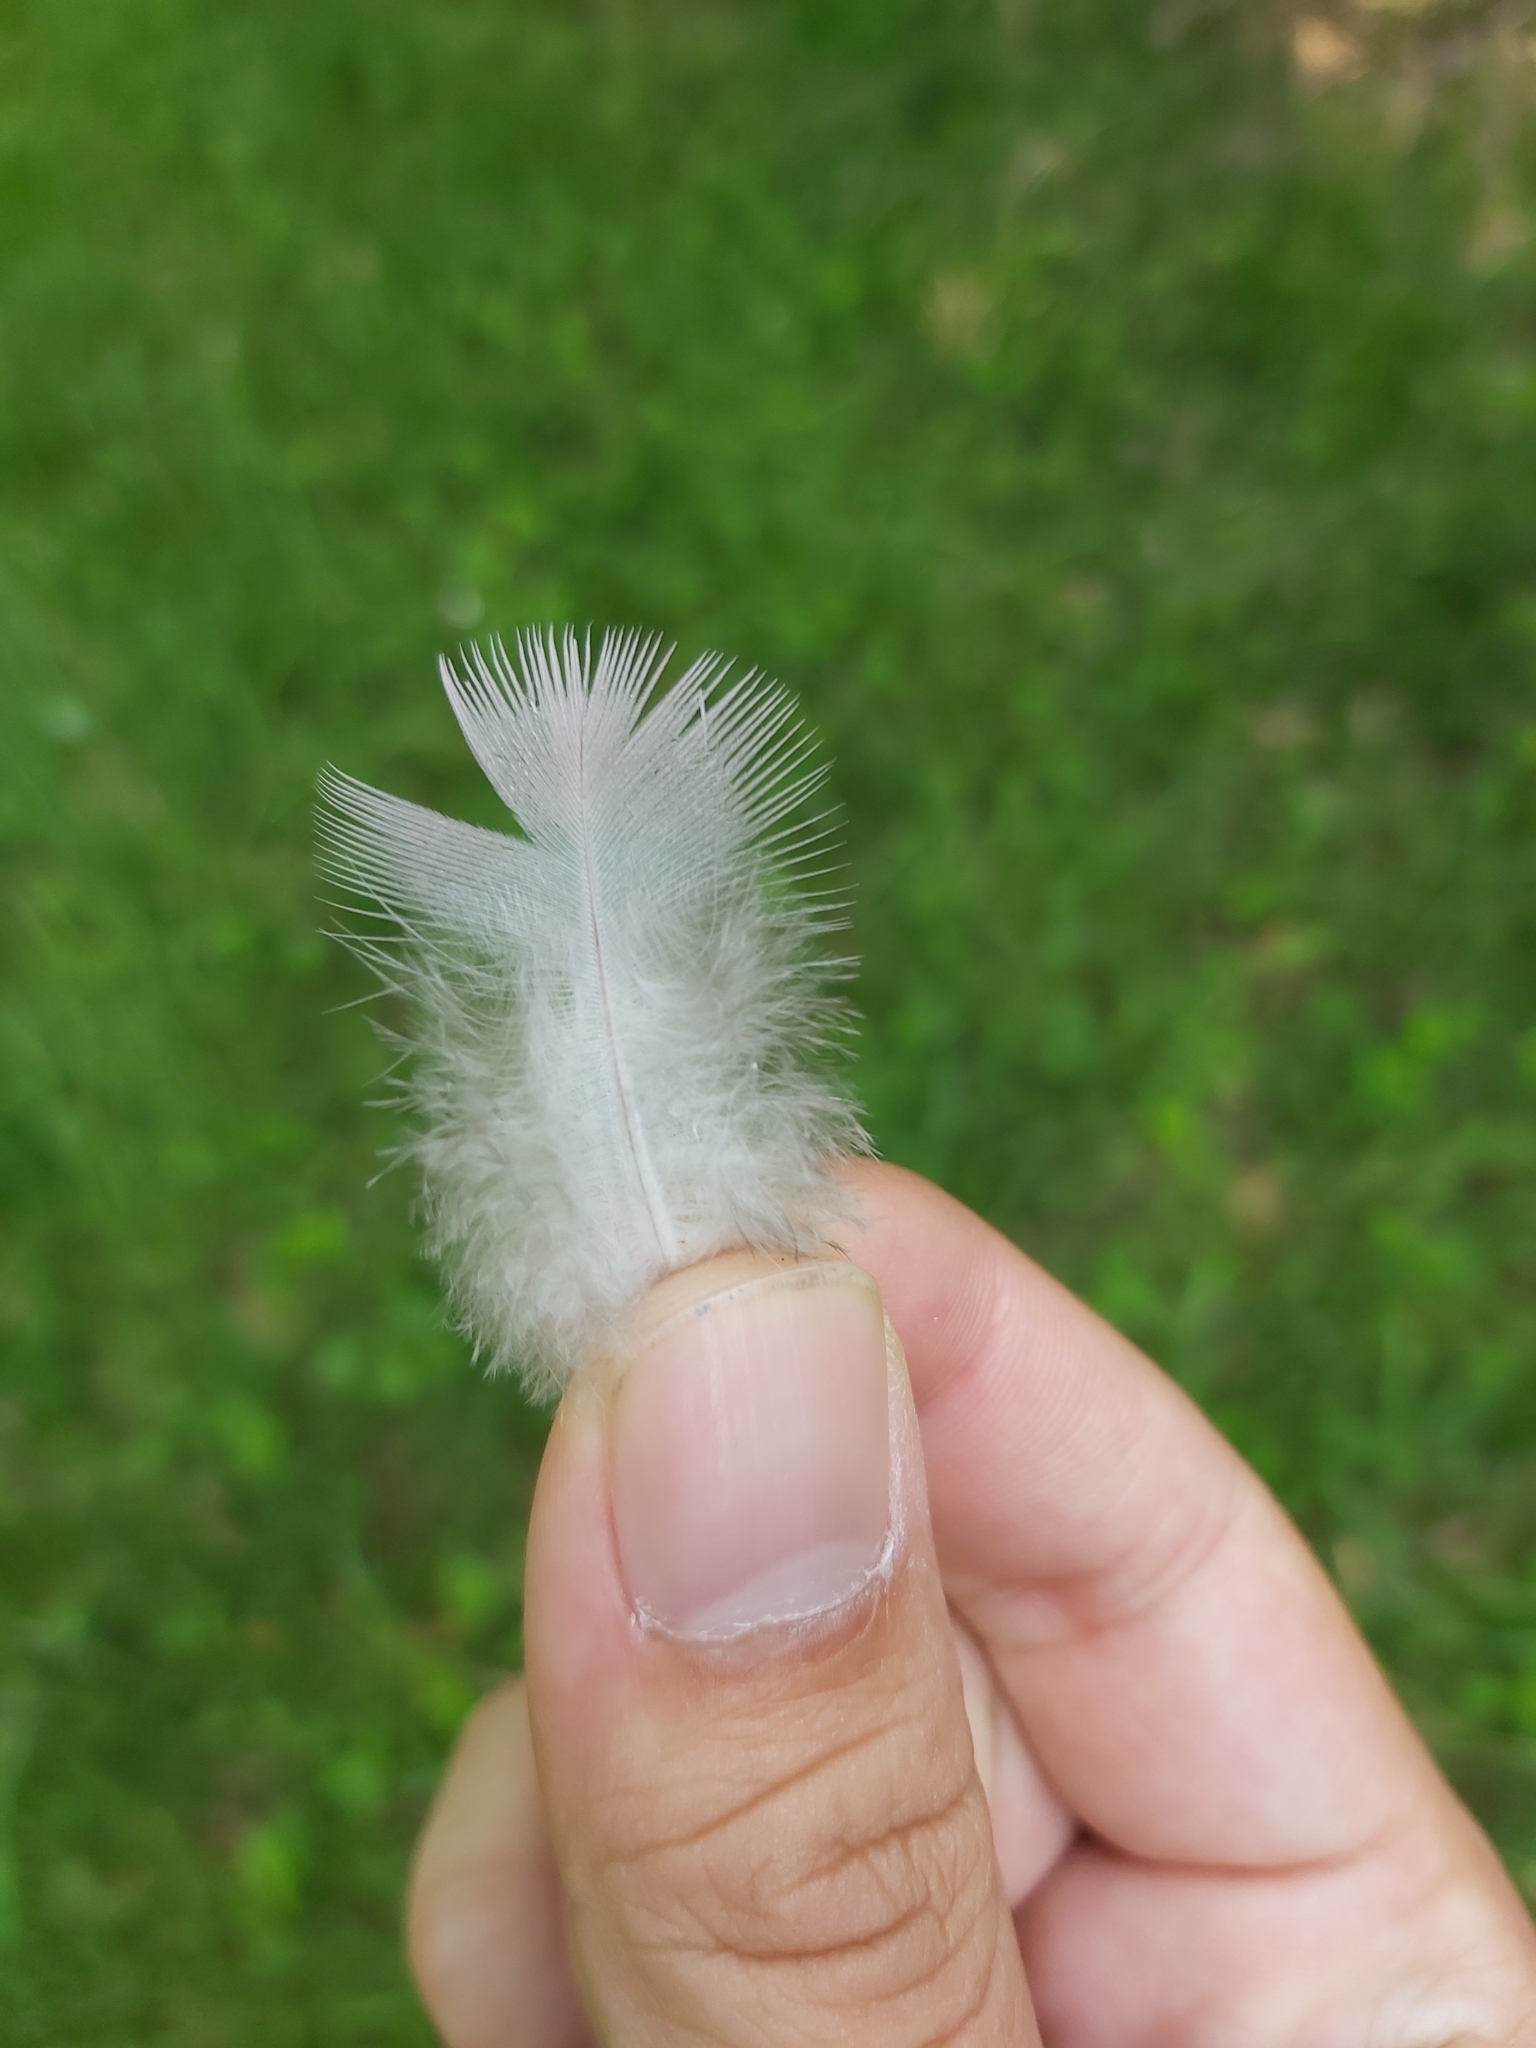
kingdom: Animalia
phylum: Chordata
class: Aves
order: Columbiformes
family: Columbidae
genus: Columba
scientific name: Columba palumbus
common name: Common wood pigeon
